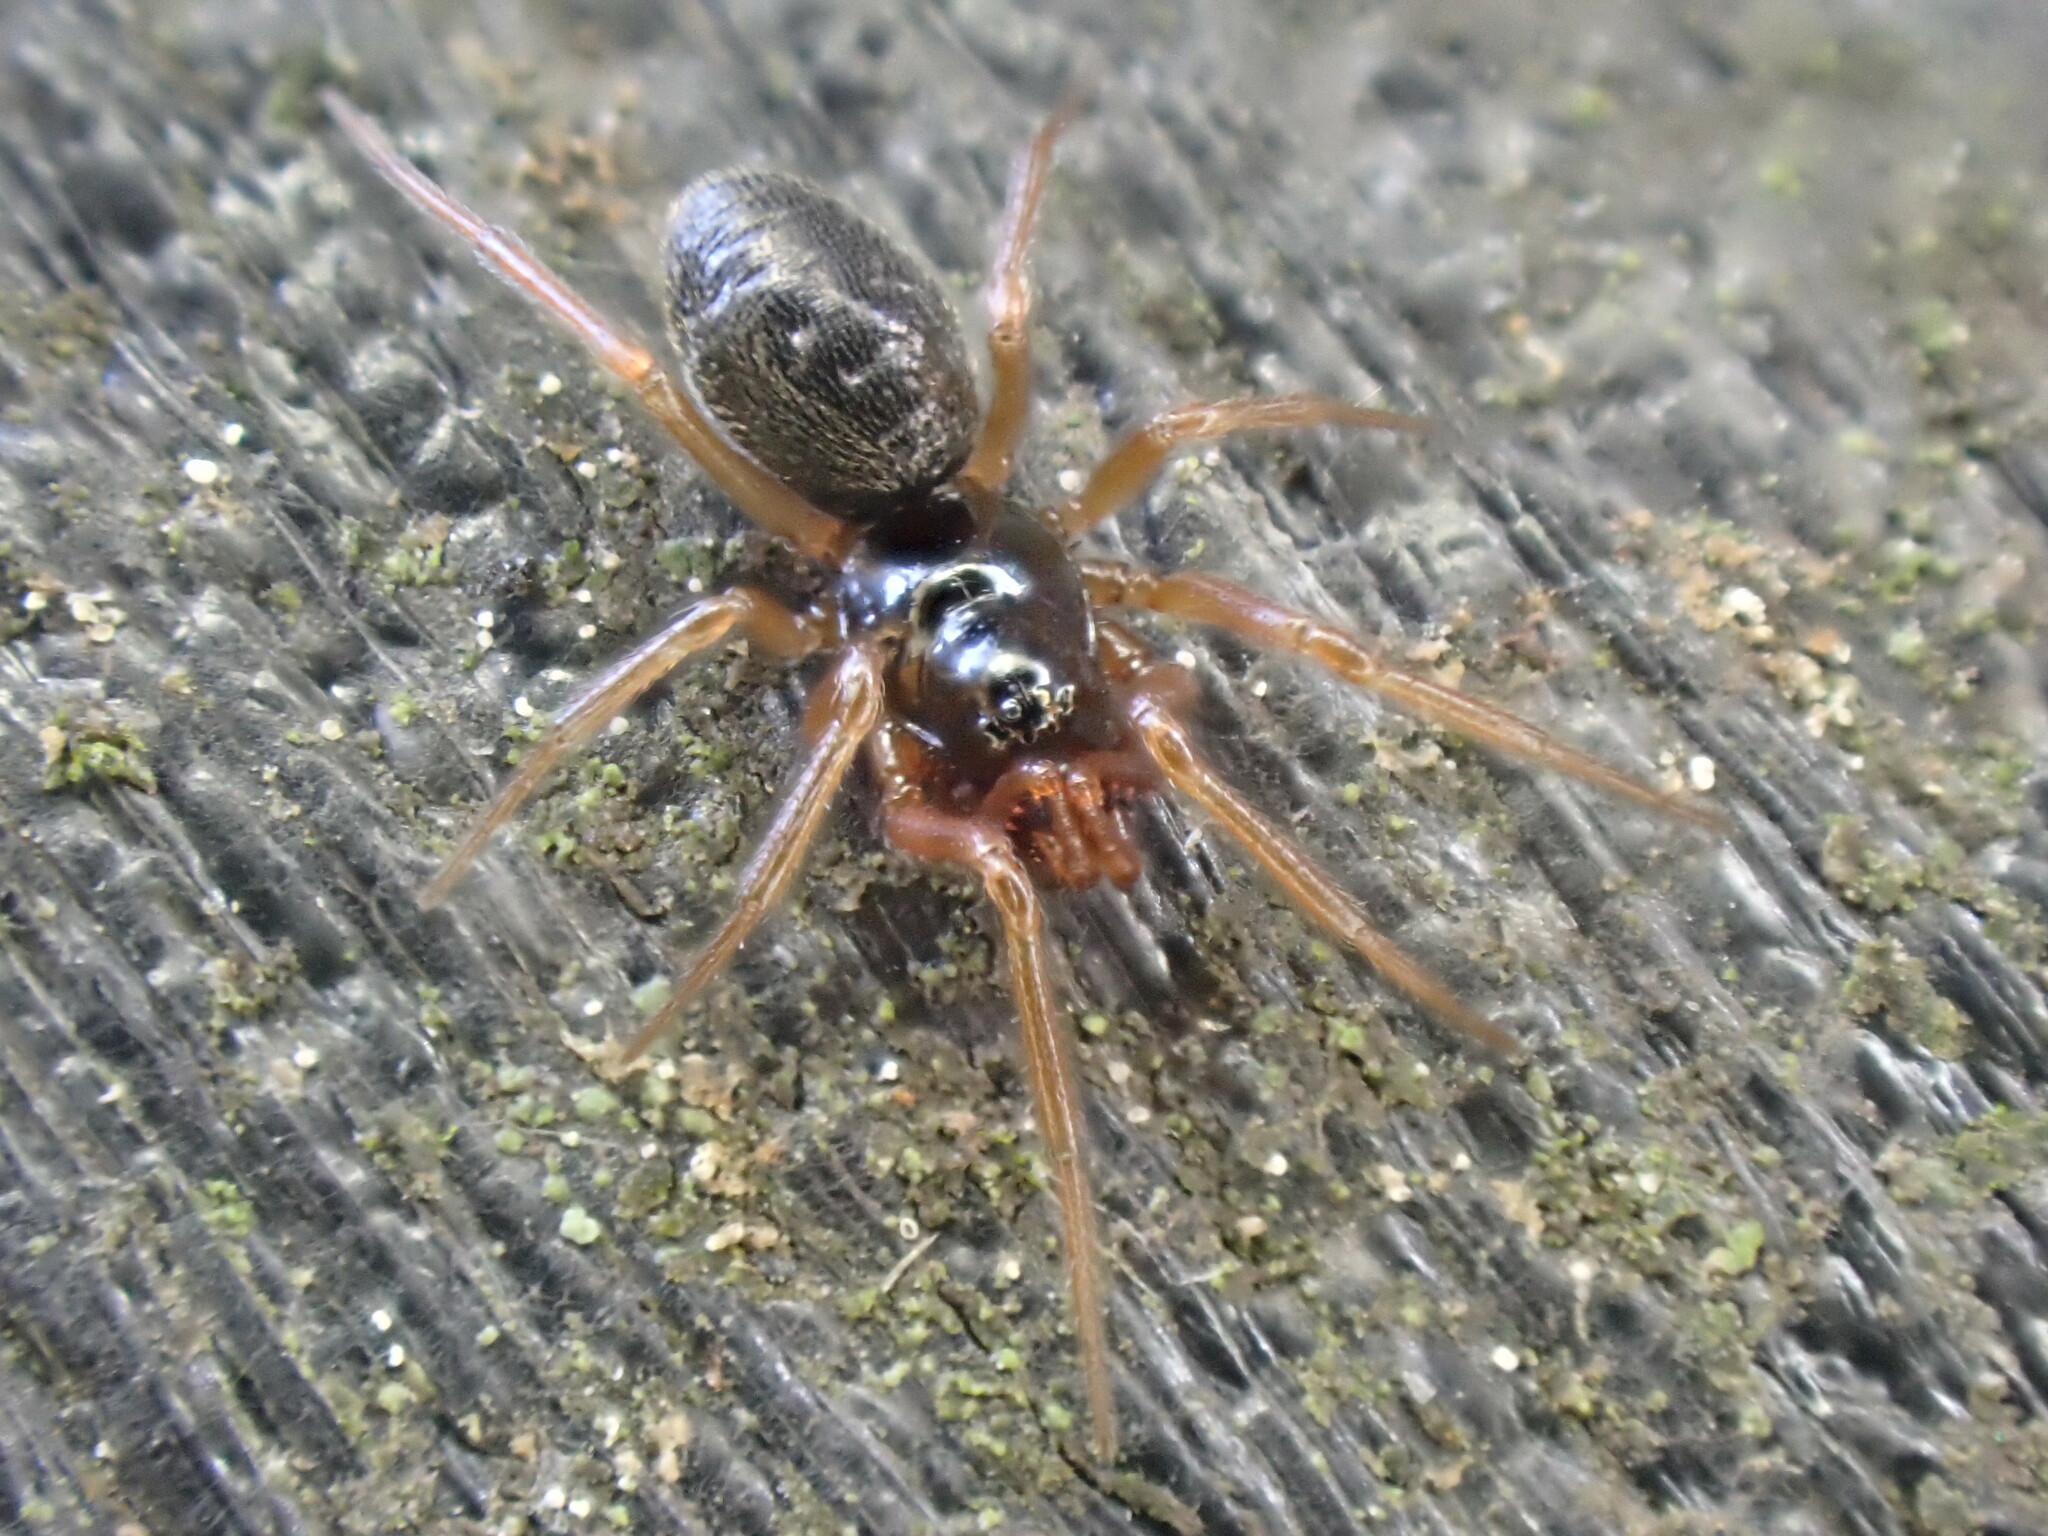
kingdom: Animalia
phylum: Arthropoda
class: Arachnida
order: Araneae
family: Linyphiidae
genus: Erigone
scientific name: Erigone
